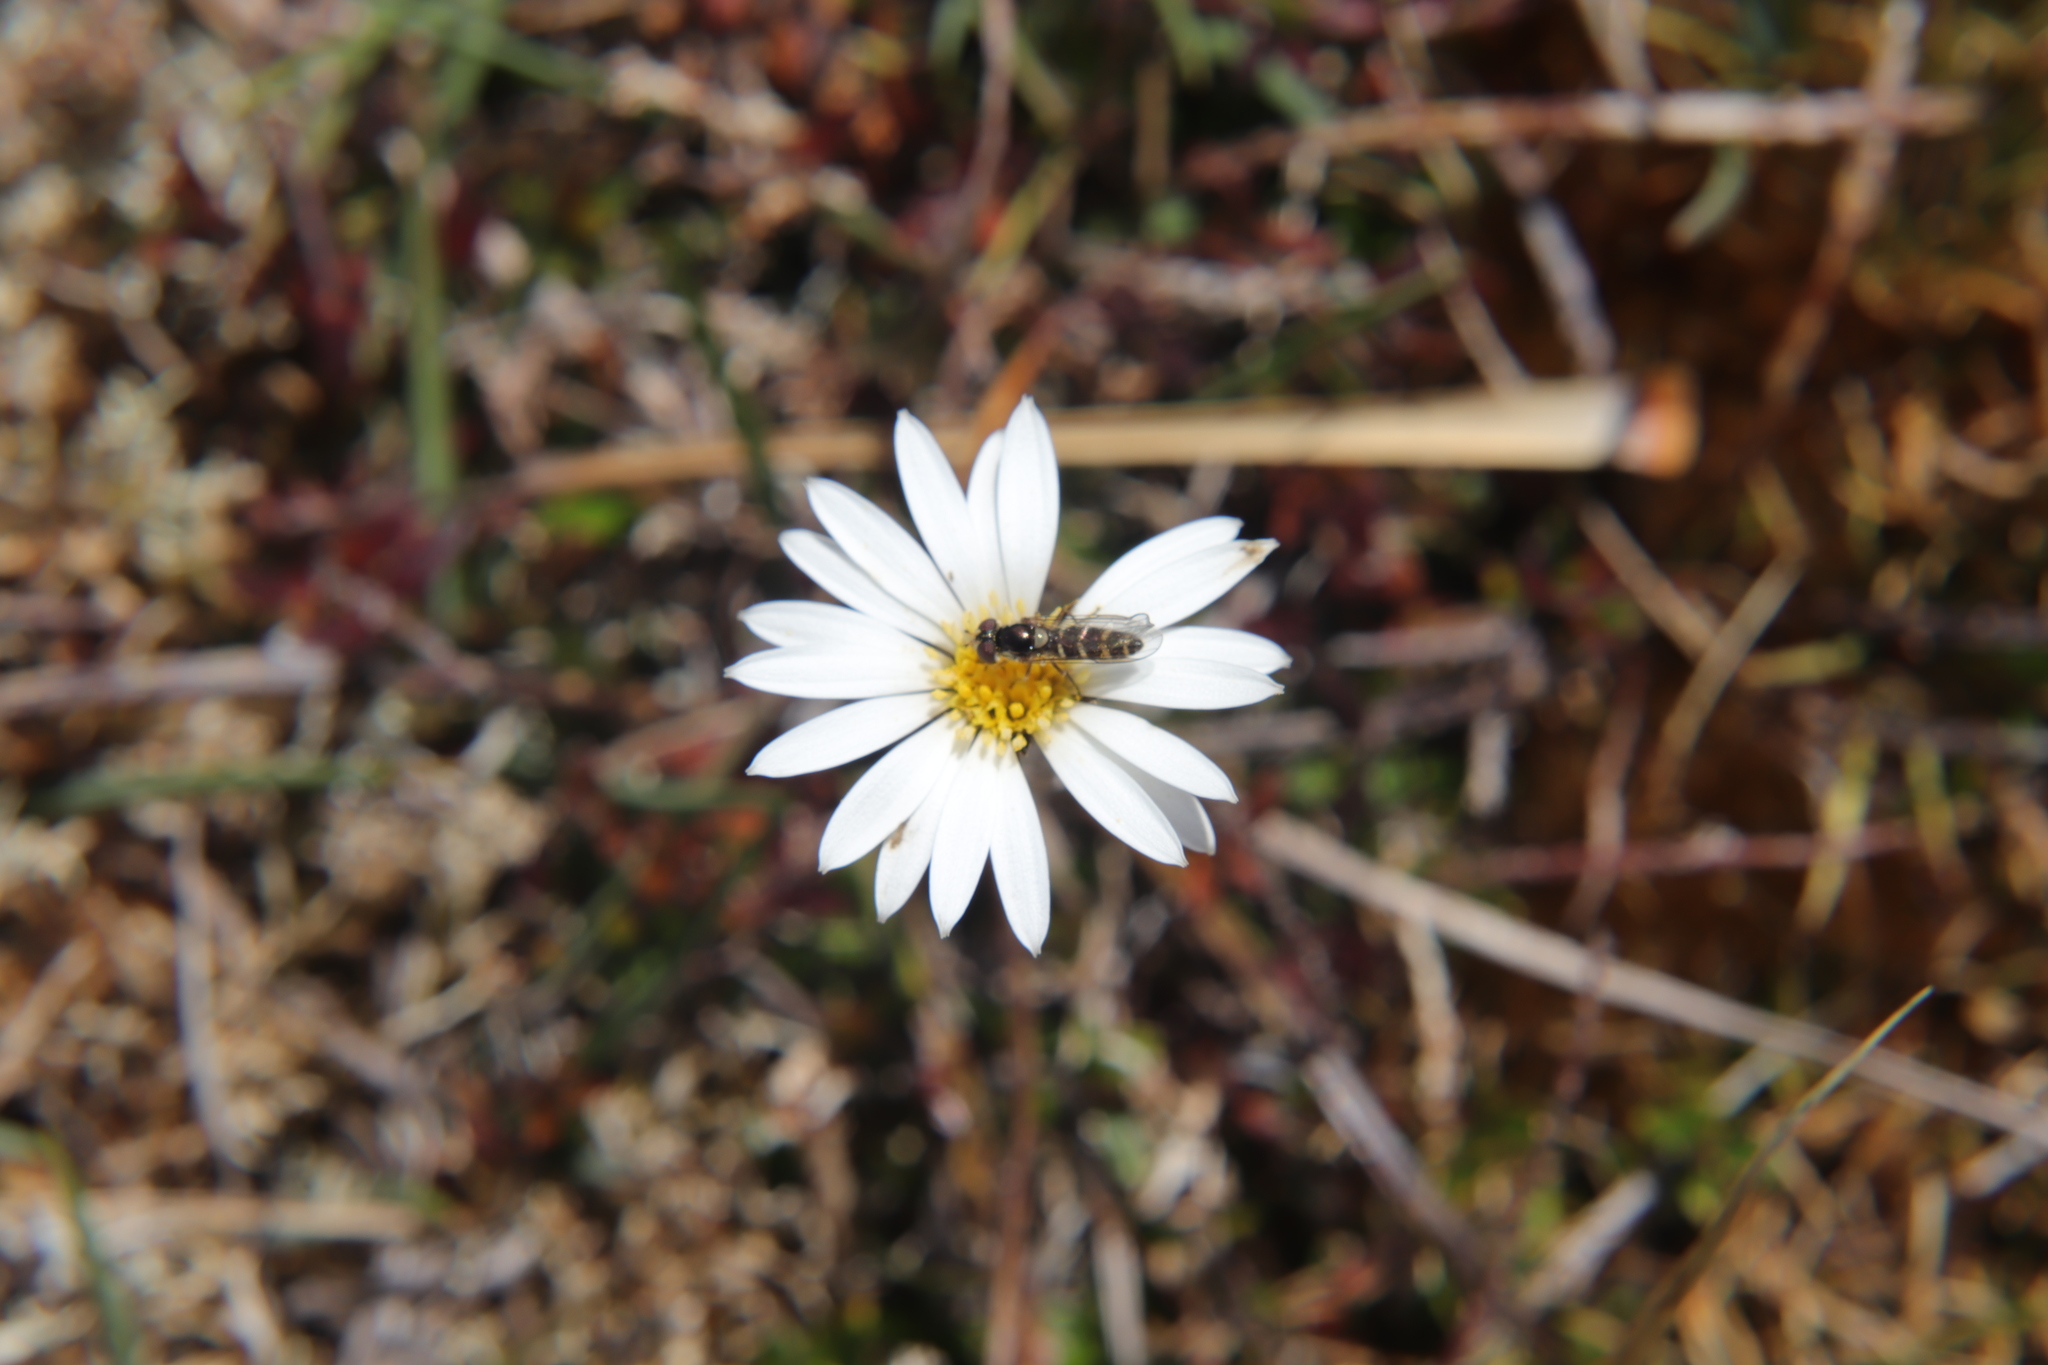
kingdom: Plantae
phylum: Tracheophyta
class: Magnoliopsida
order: Asterales
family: Asteraceae
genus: Celmisia
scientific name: Celmisia gracilenta
